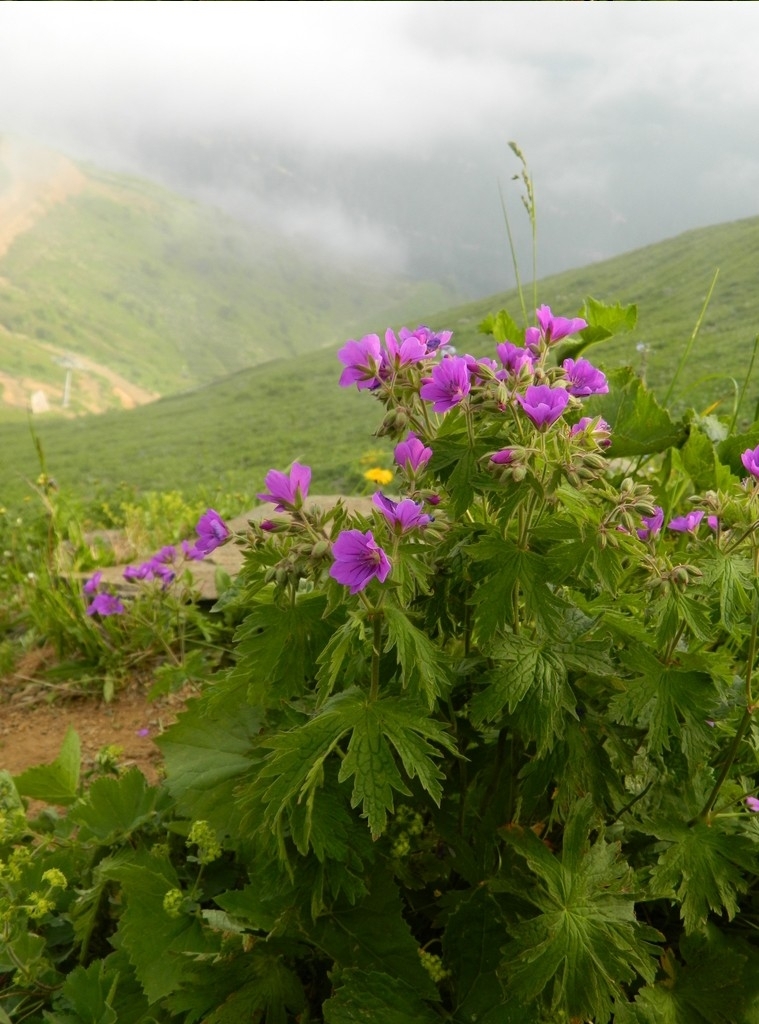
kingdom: Plantae
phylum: Tracheophyta
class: Magnoliopsida
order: Geraniales
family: Geraniaceae
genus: Geranium
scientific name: Geranium sylvaticum
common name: Wood crane's-bill
